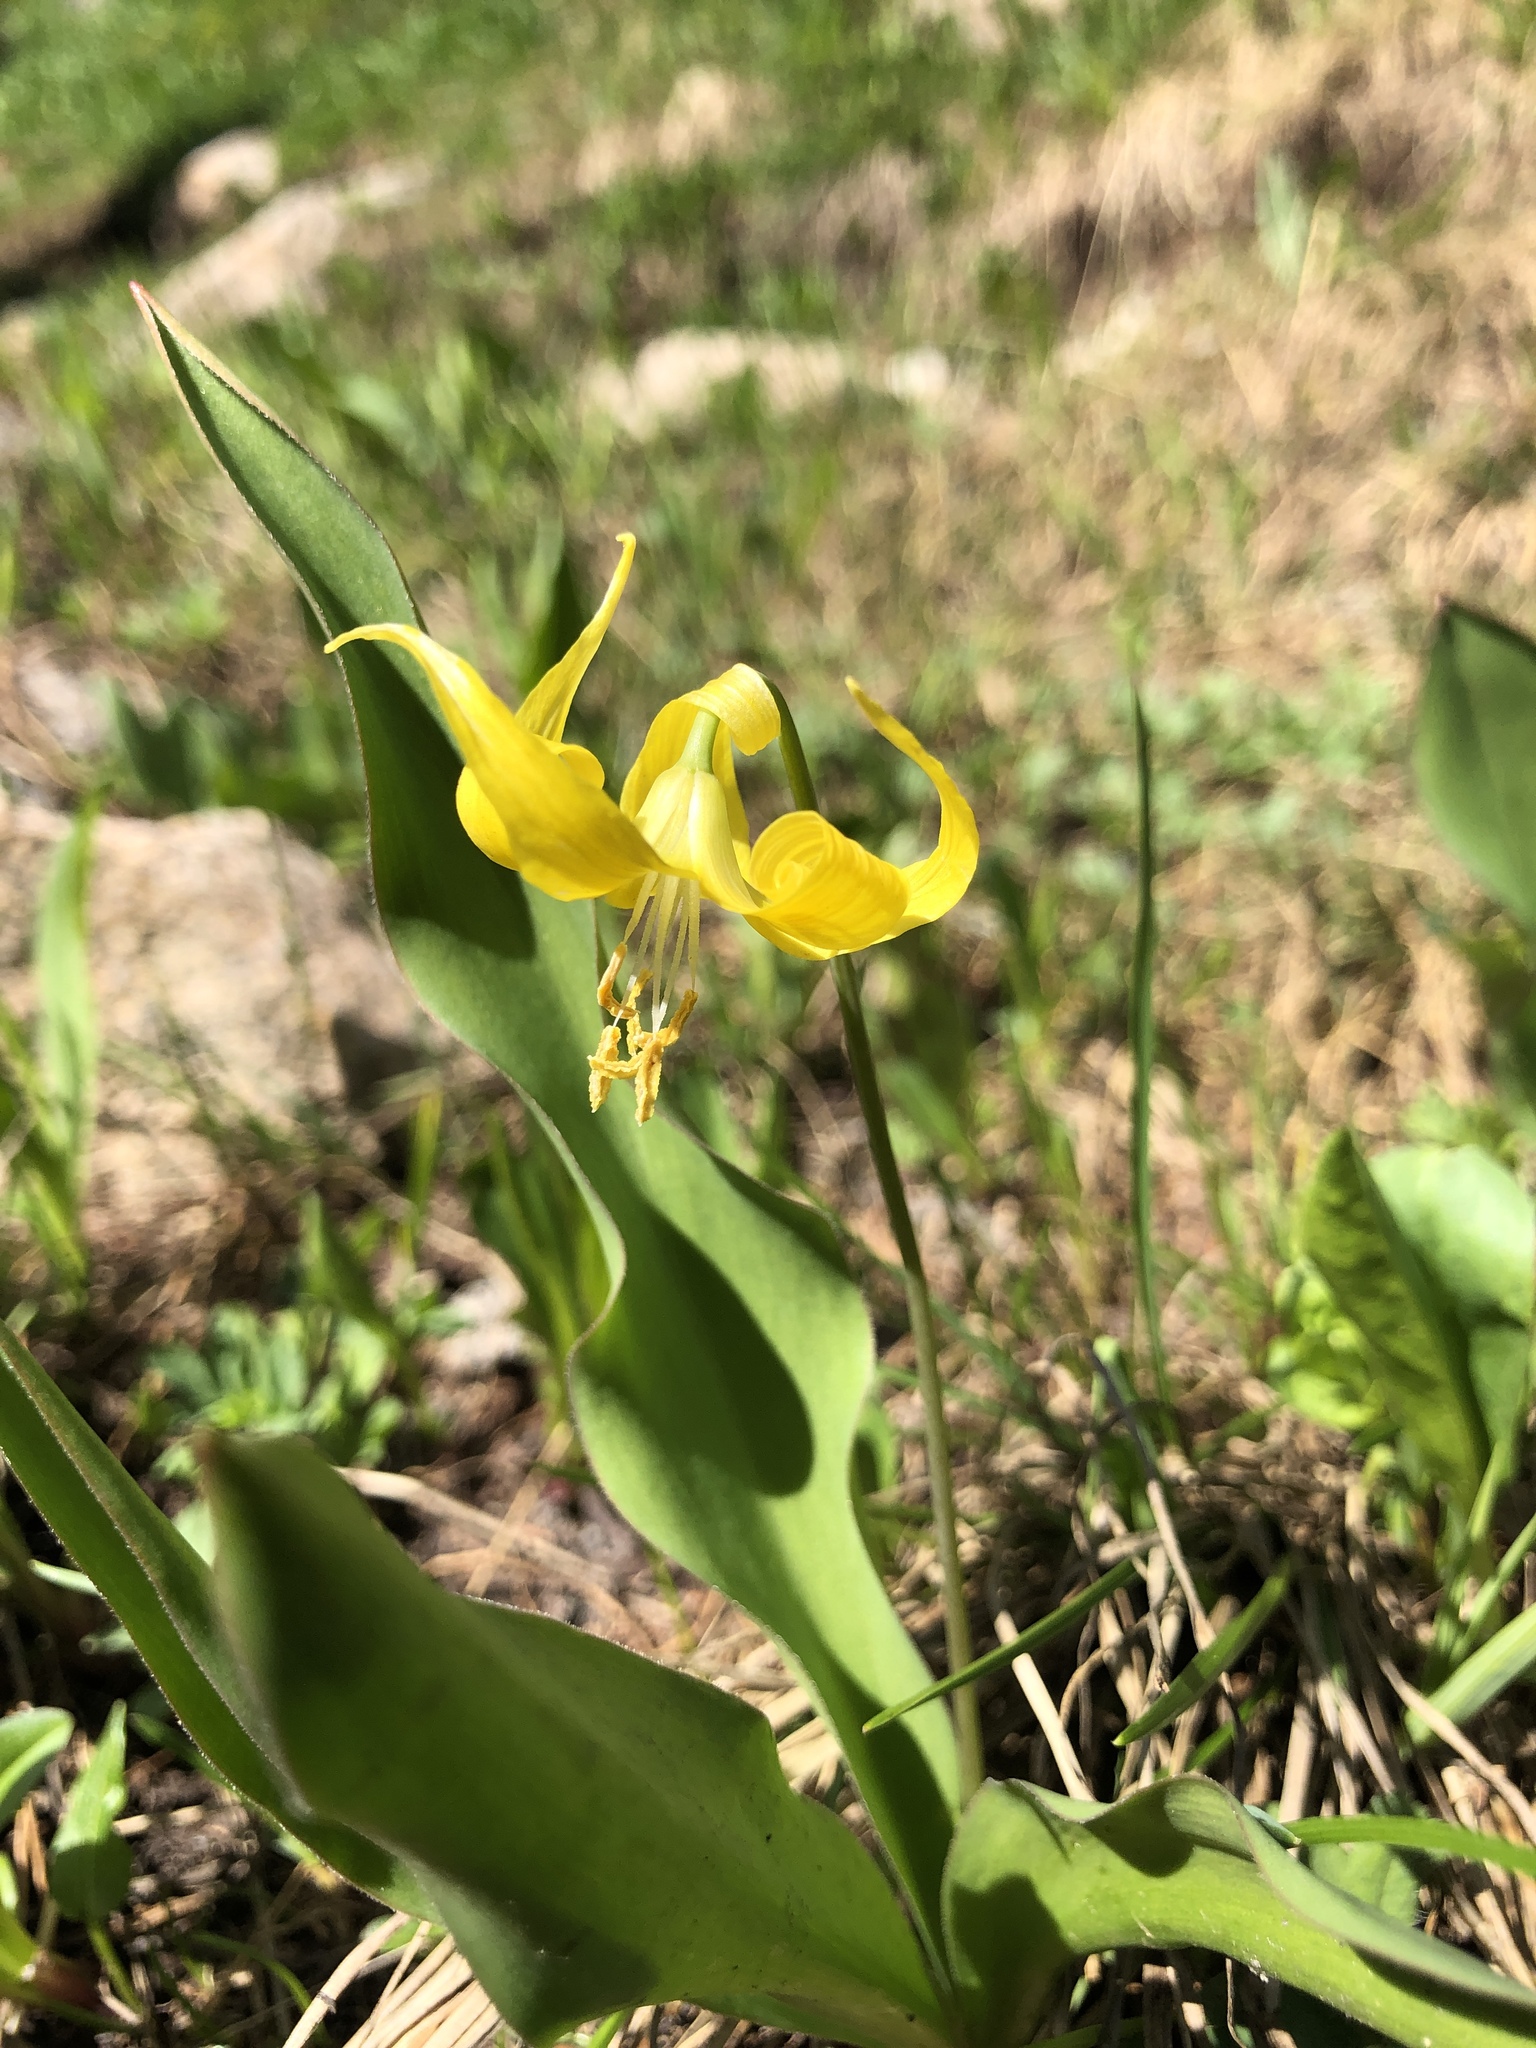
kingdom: Plantae
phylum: Tracheophyta
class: Liliopsida
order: Liliales
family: Liliaceae
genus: Erythronium
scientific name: Erythronium grandiflorum
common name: Avalanche-lily
